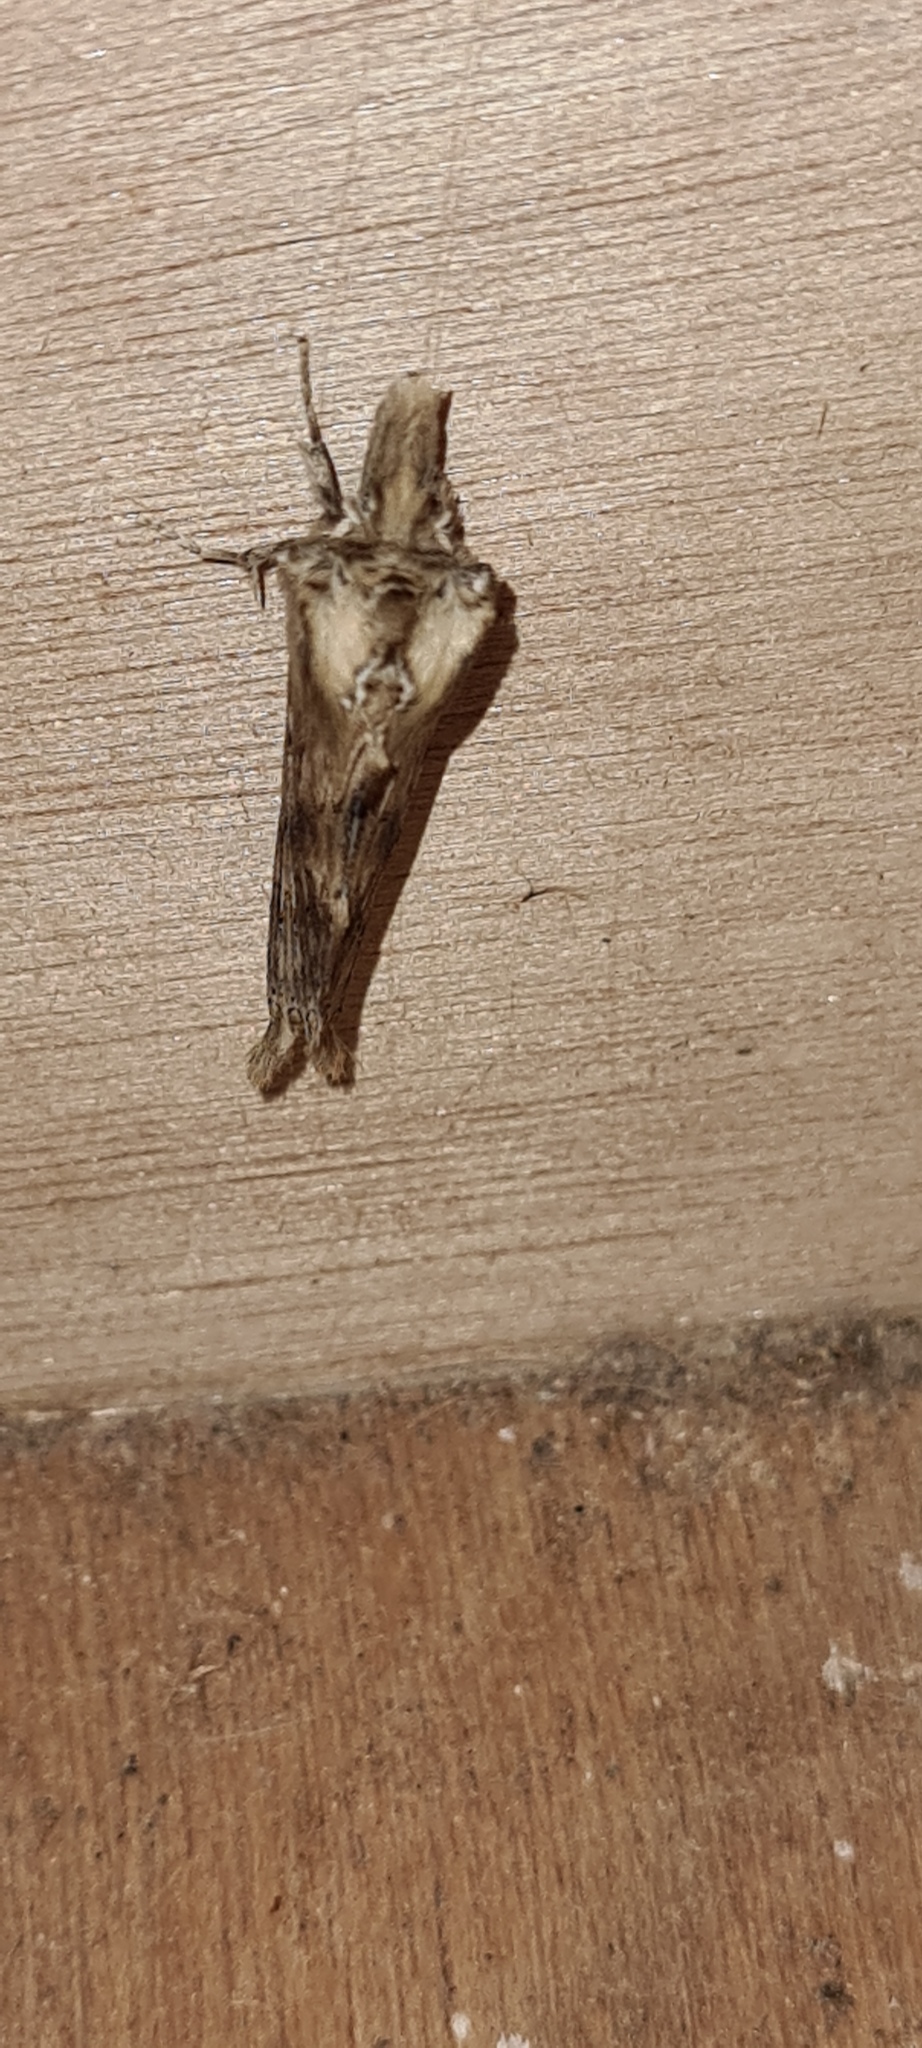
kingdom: Animalia
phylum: Arthropoda
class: Insecta
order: Lepidoptera
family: Notodontidae
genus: Pterostoma
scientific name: Pterostoma palpina
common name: Pale prominent
